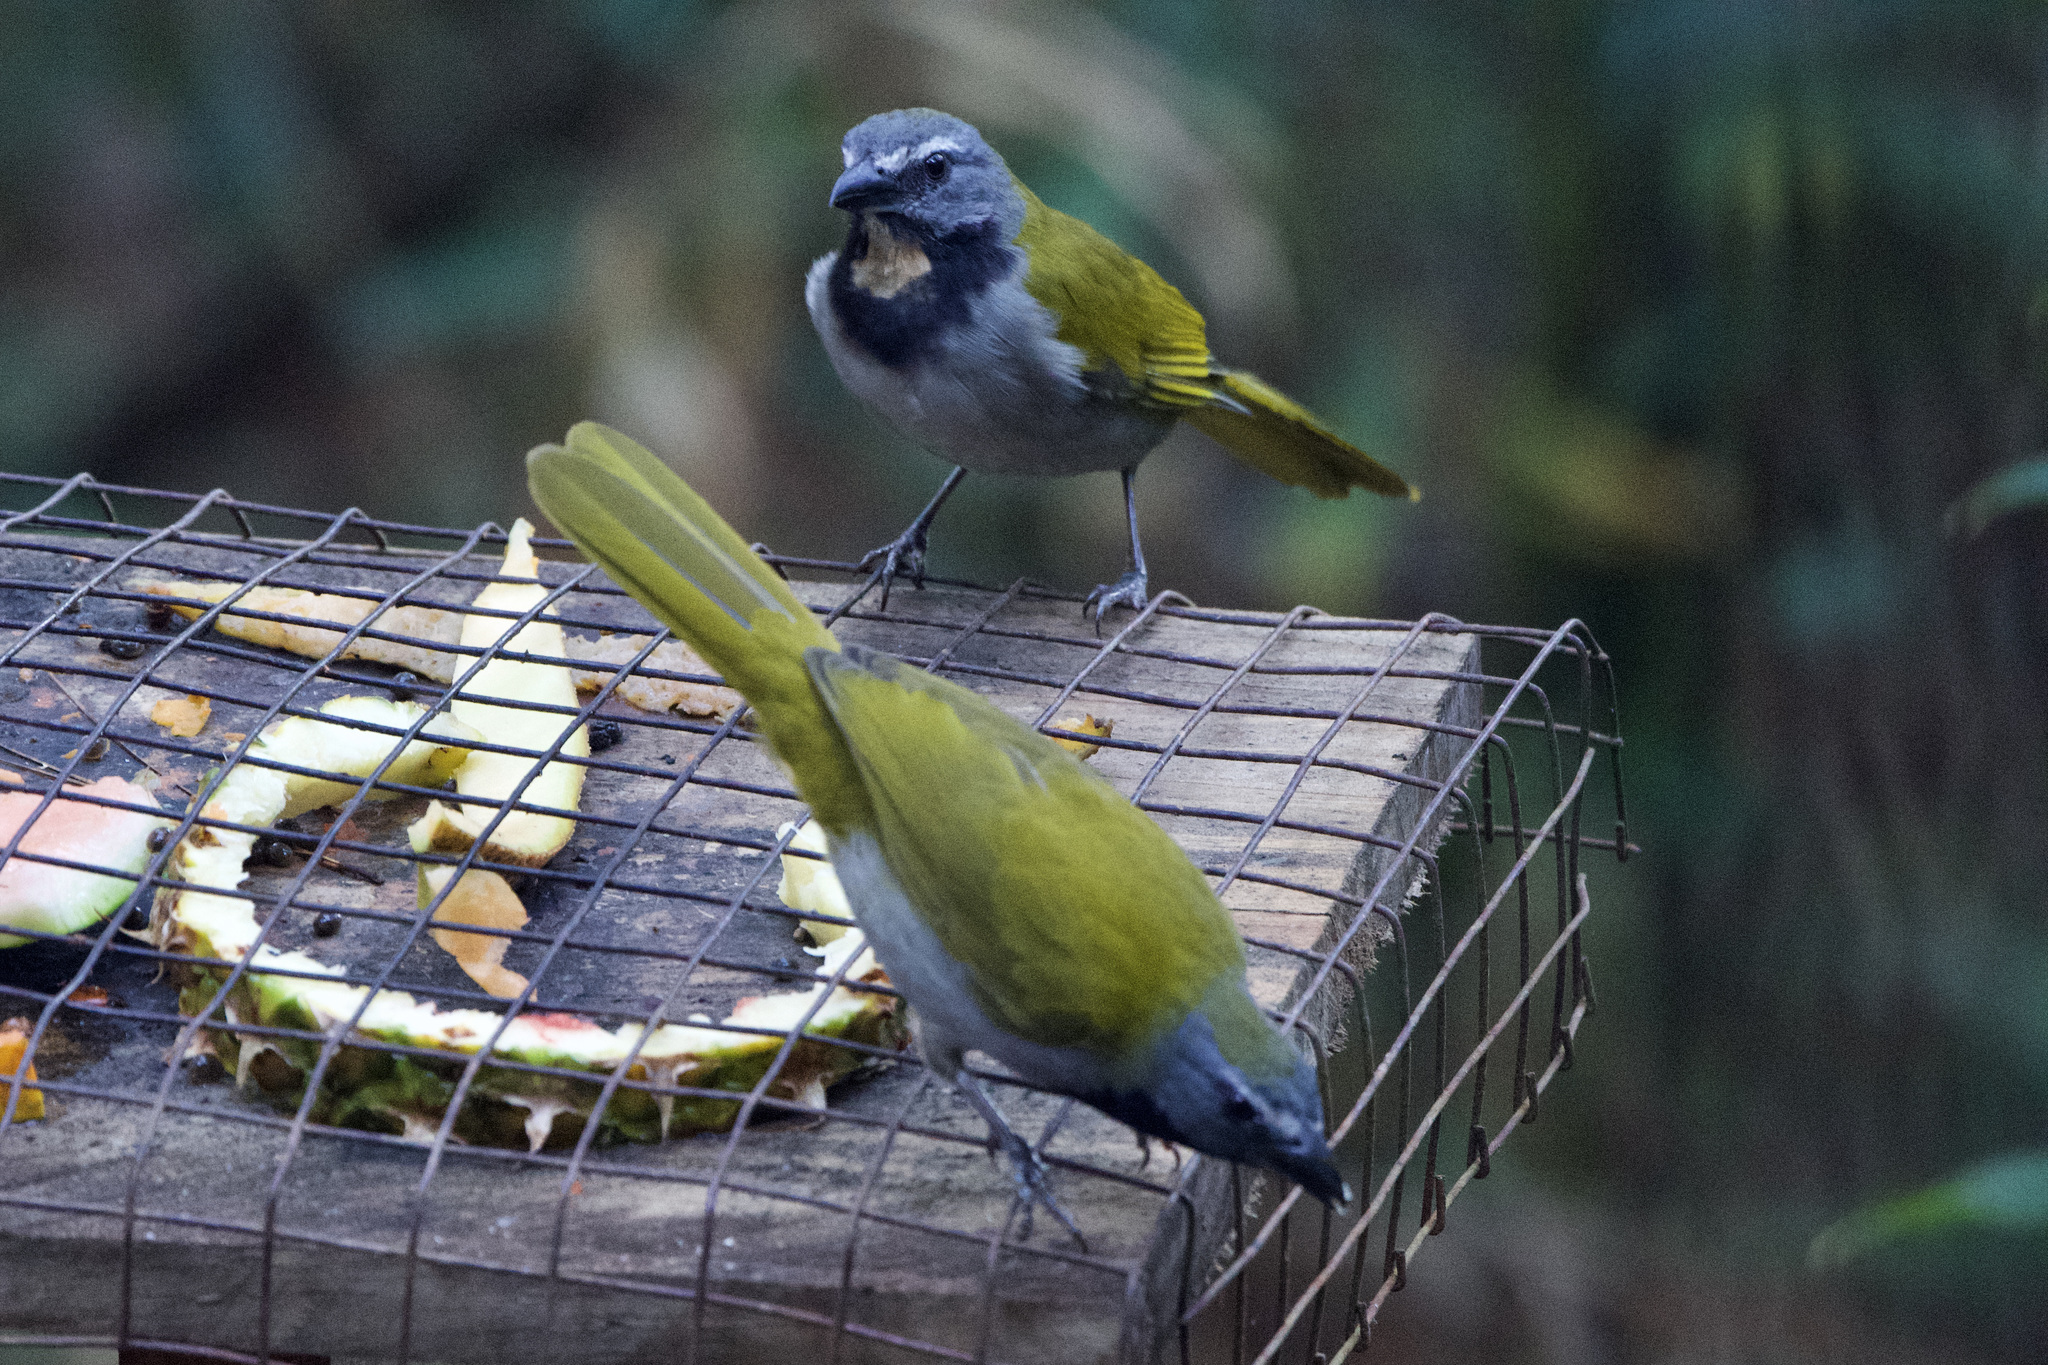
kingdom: Animalia
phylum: Chordata
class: Aves
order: Passeriformes
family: Thraupidae
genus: Saltator
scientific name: Saltator maximus
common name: Buff-throated saltator
